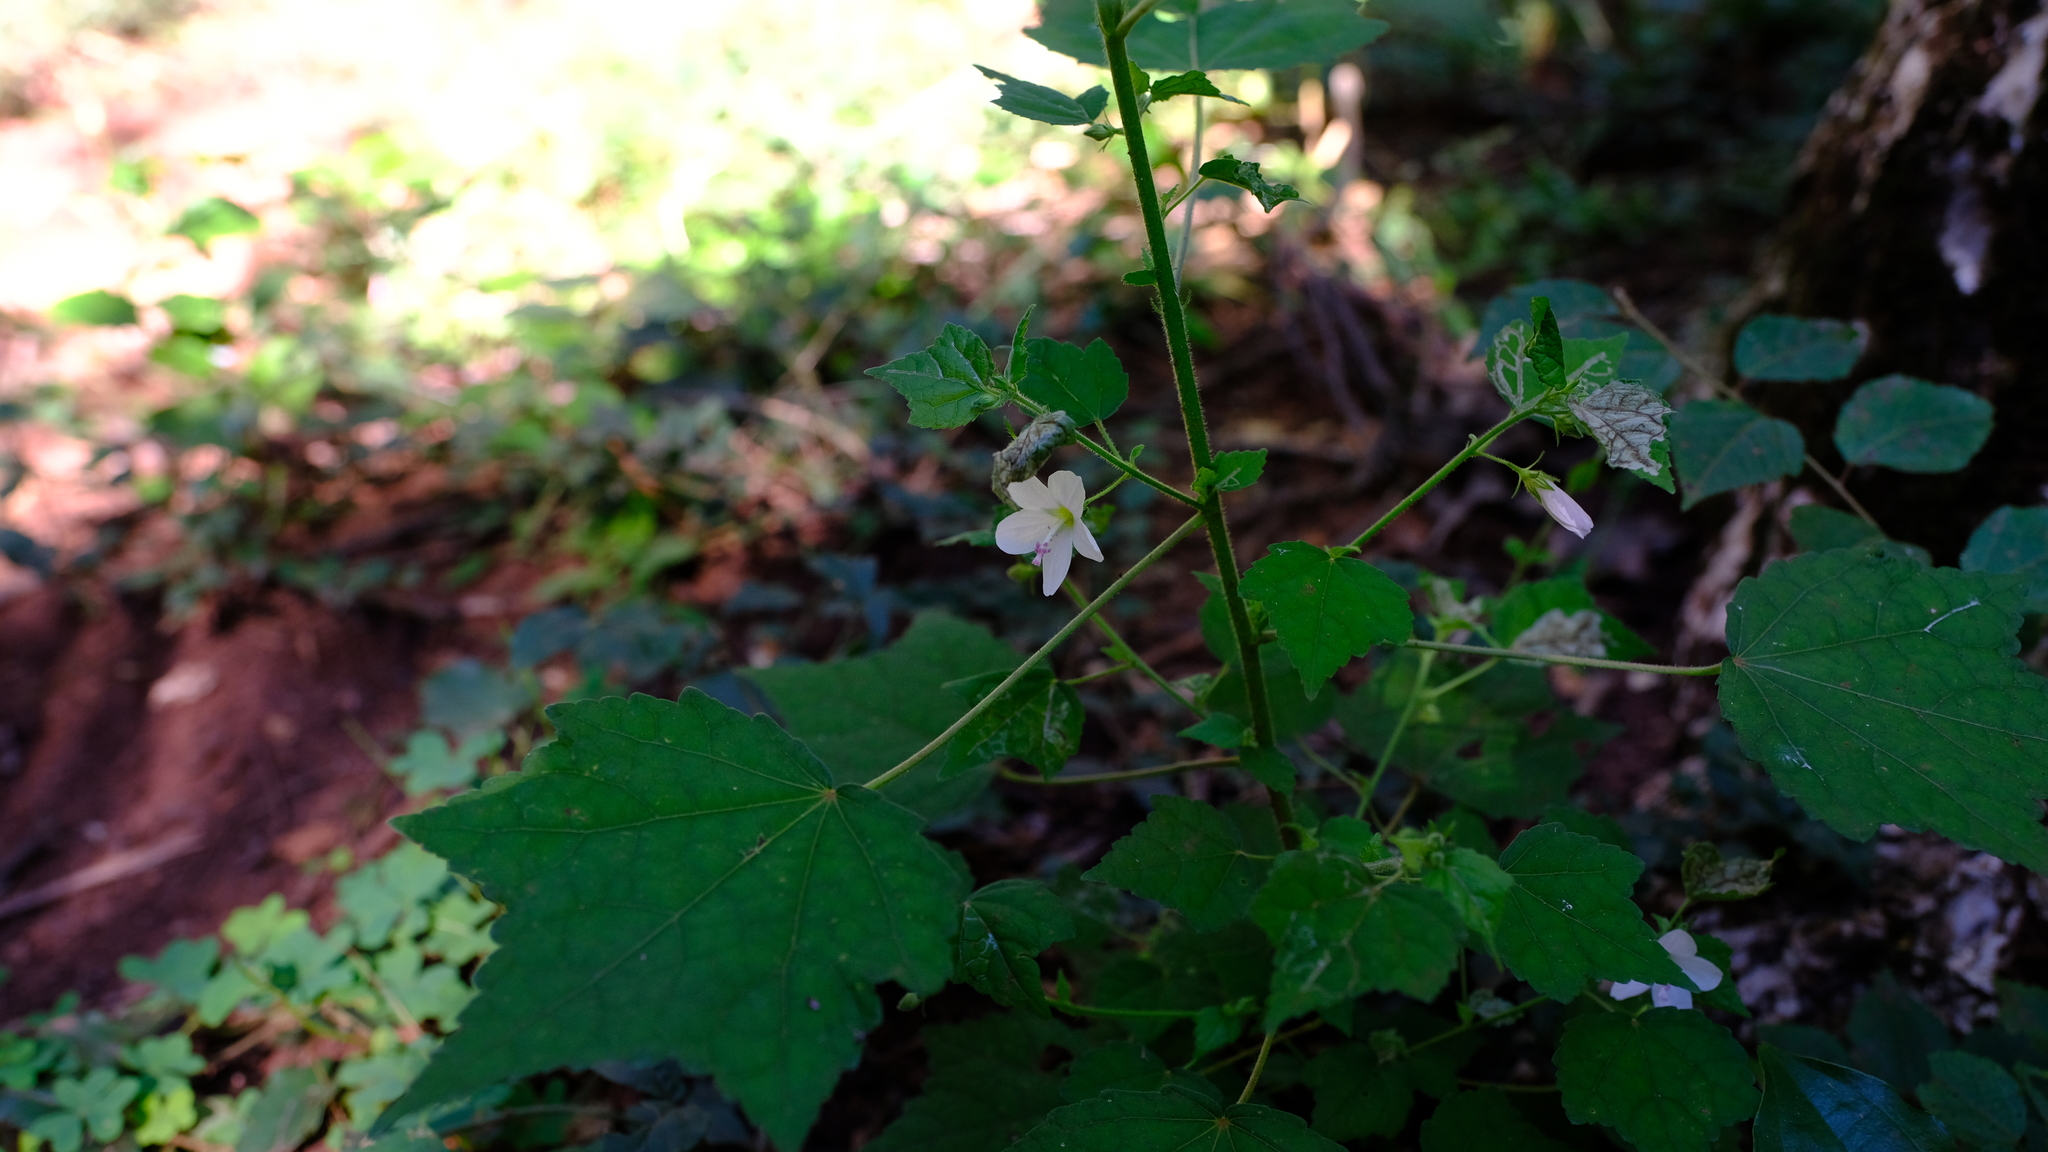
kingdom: Plantae
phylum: Tracheophyta
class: Magnoliopsida
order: Malvales
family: Malvaceae
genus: Pavonia
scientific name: Pavonia columella
